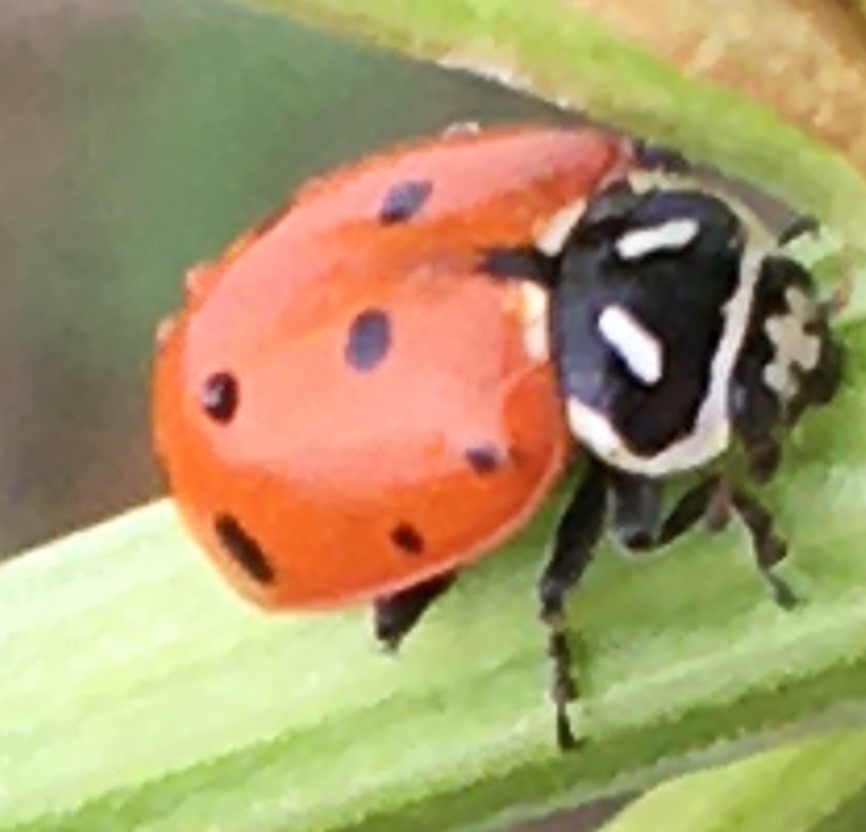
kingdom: Animalia
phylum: Arthropoda
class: Insecta
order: Coleoptera
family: Coccinellidae
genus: Hippodamia
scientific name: Hippodamia convergens
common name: Convergent lady beetle
